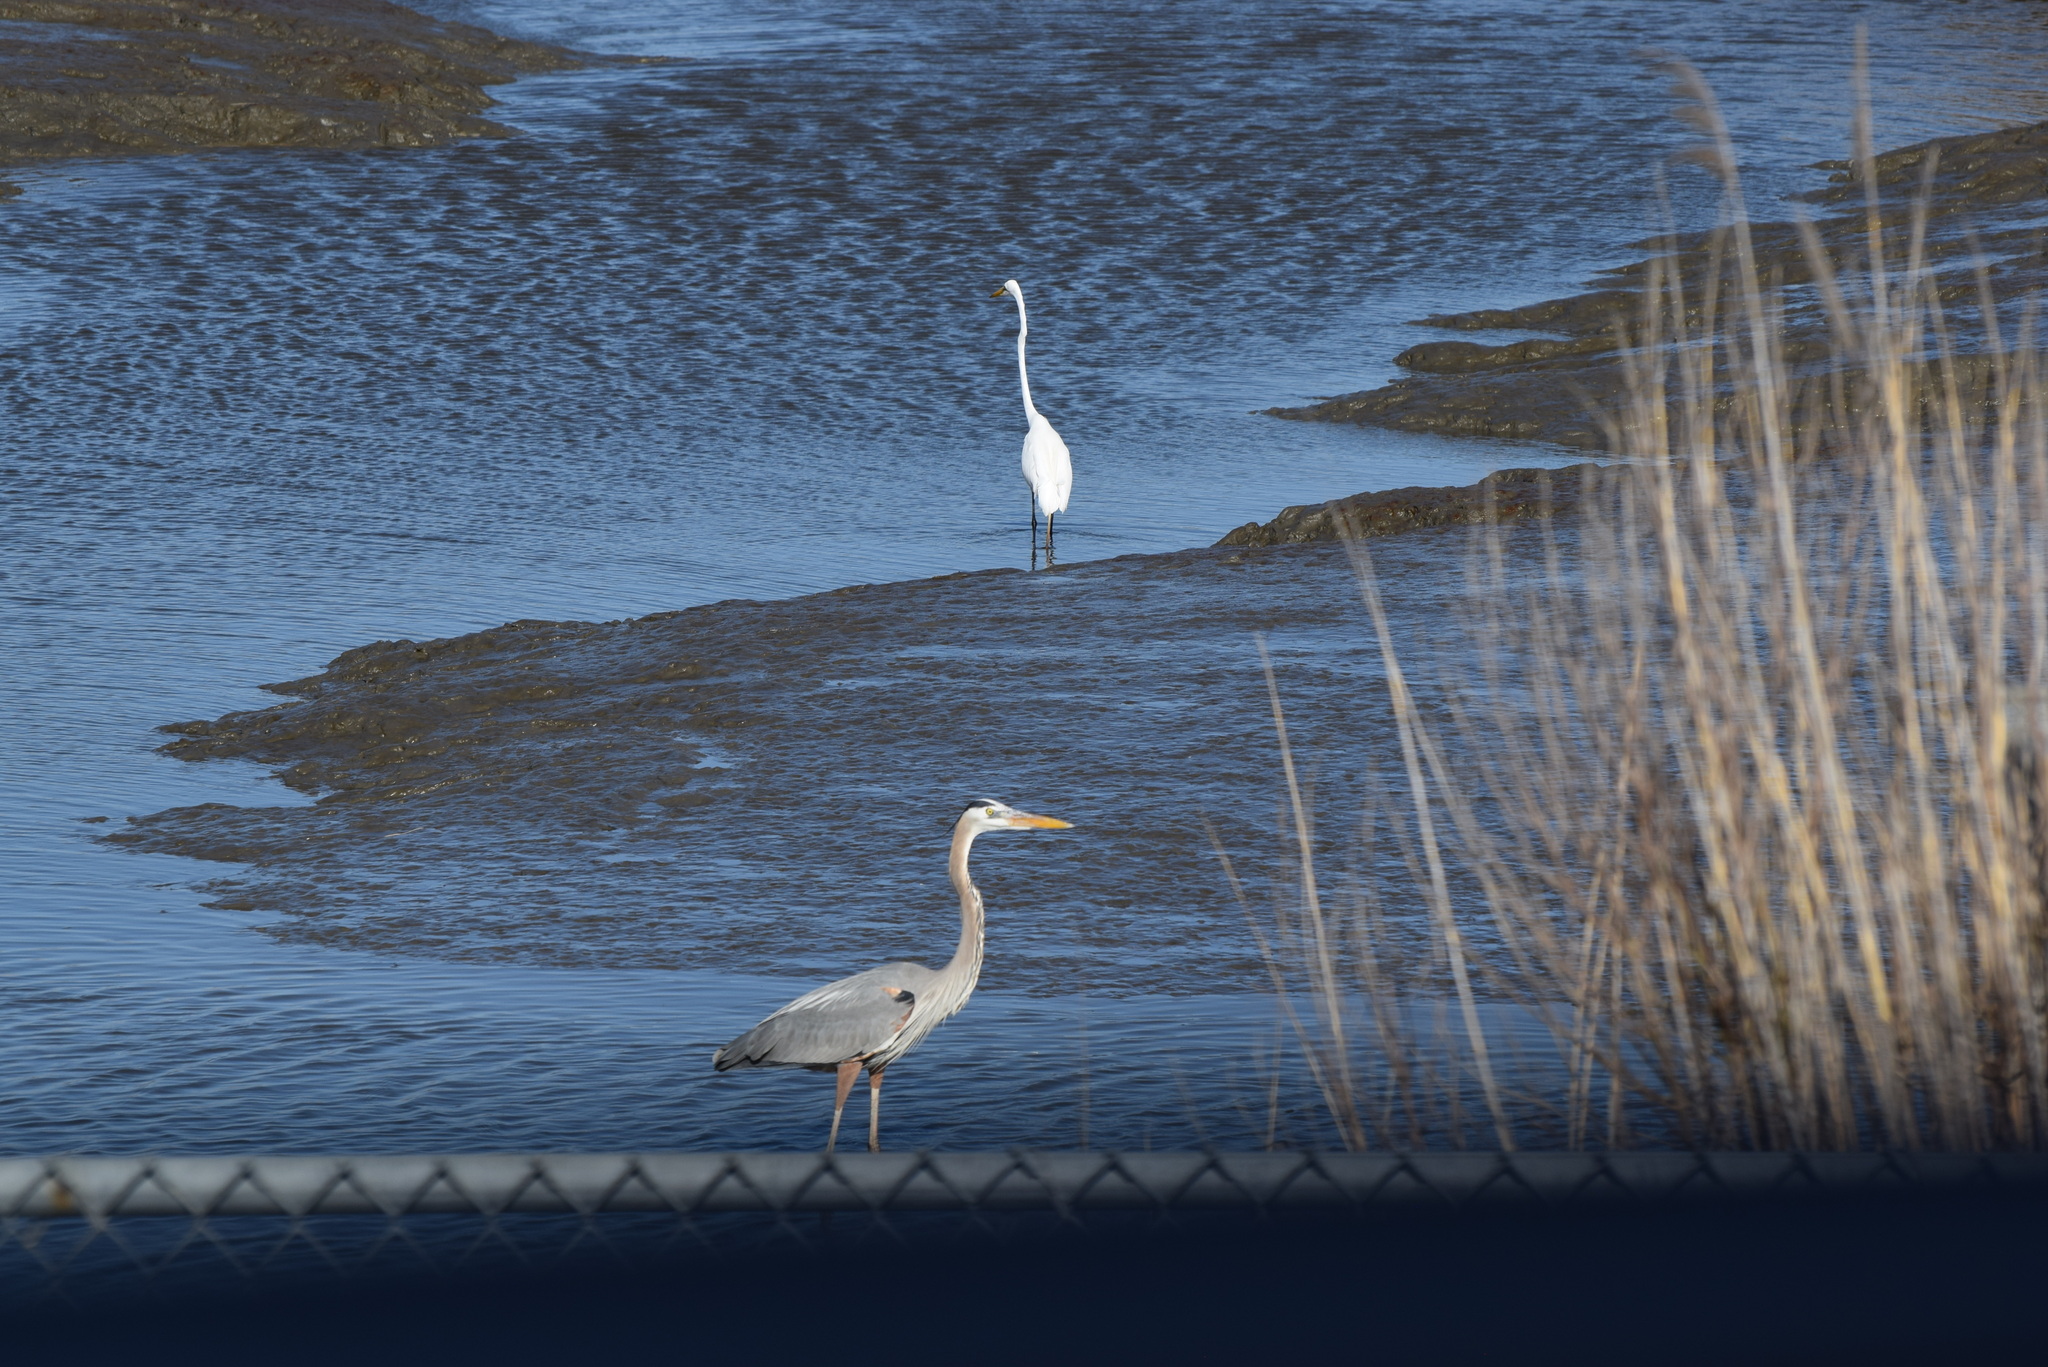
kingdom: Animalia
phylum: Chordata
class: Aves
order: Pelecaniformes
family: Ardeidae
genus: Ardea
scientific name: Ardea herodias
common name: Great blue heron
